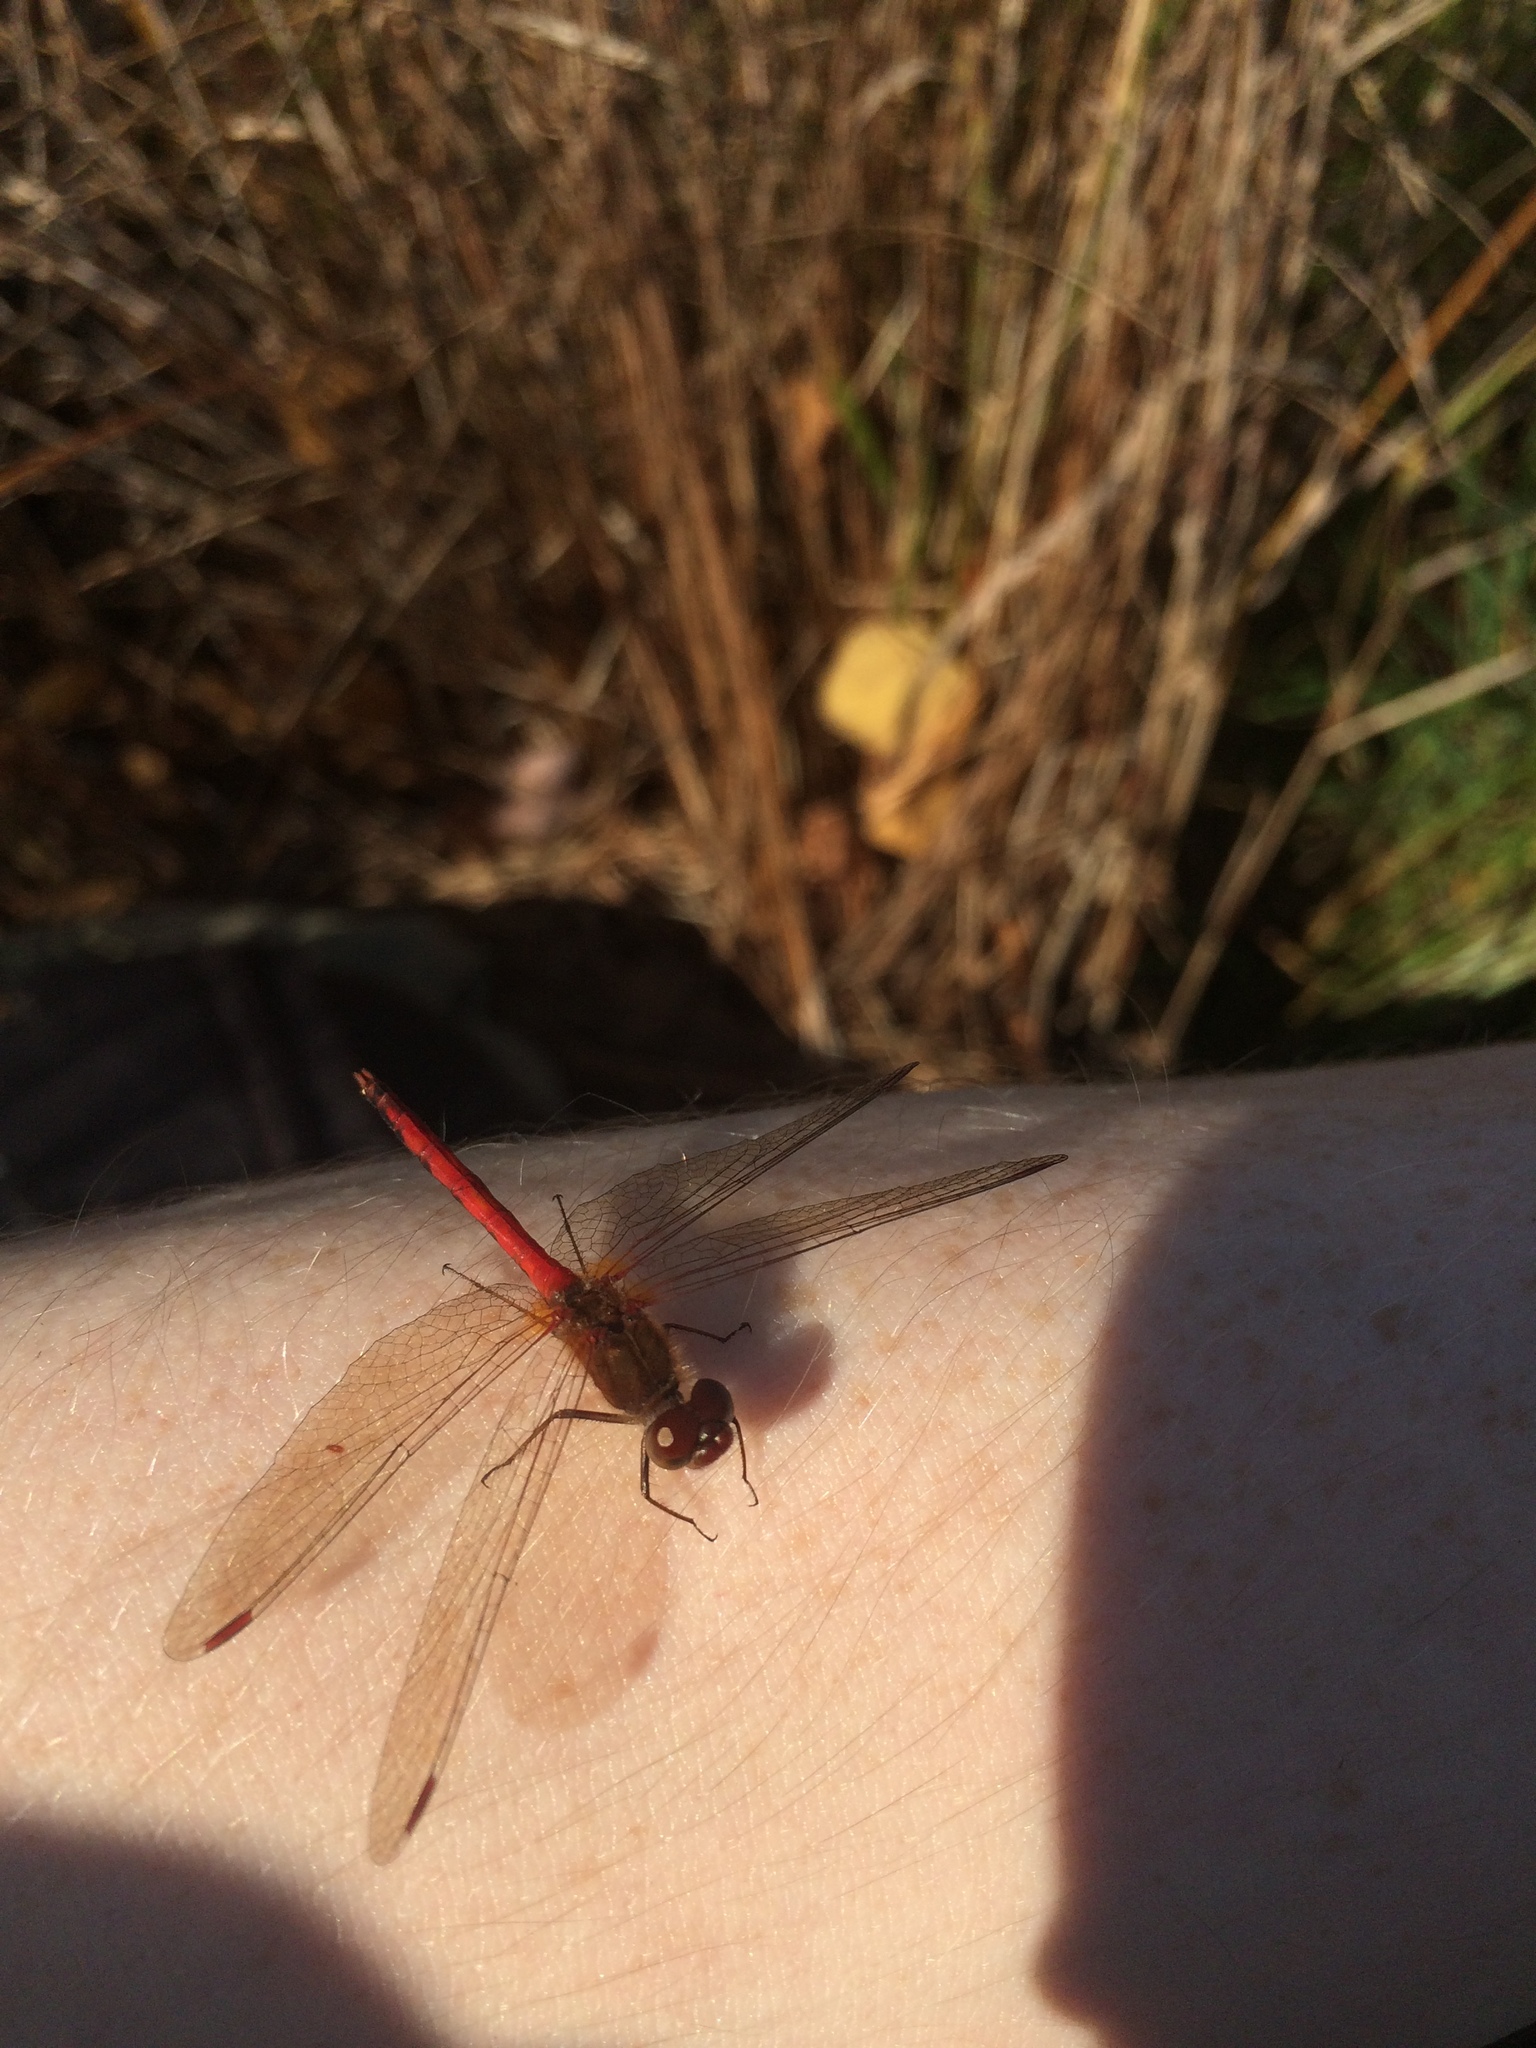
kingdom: Animalia
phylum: Arthropoda
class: Insecta
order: Odonata
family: Libellulidae
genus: Sympetrum
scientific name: Sympetrum vicinum
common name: Autumn meadowhawk
